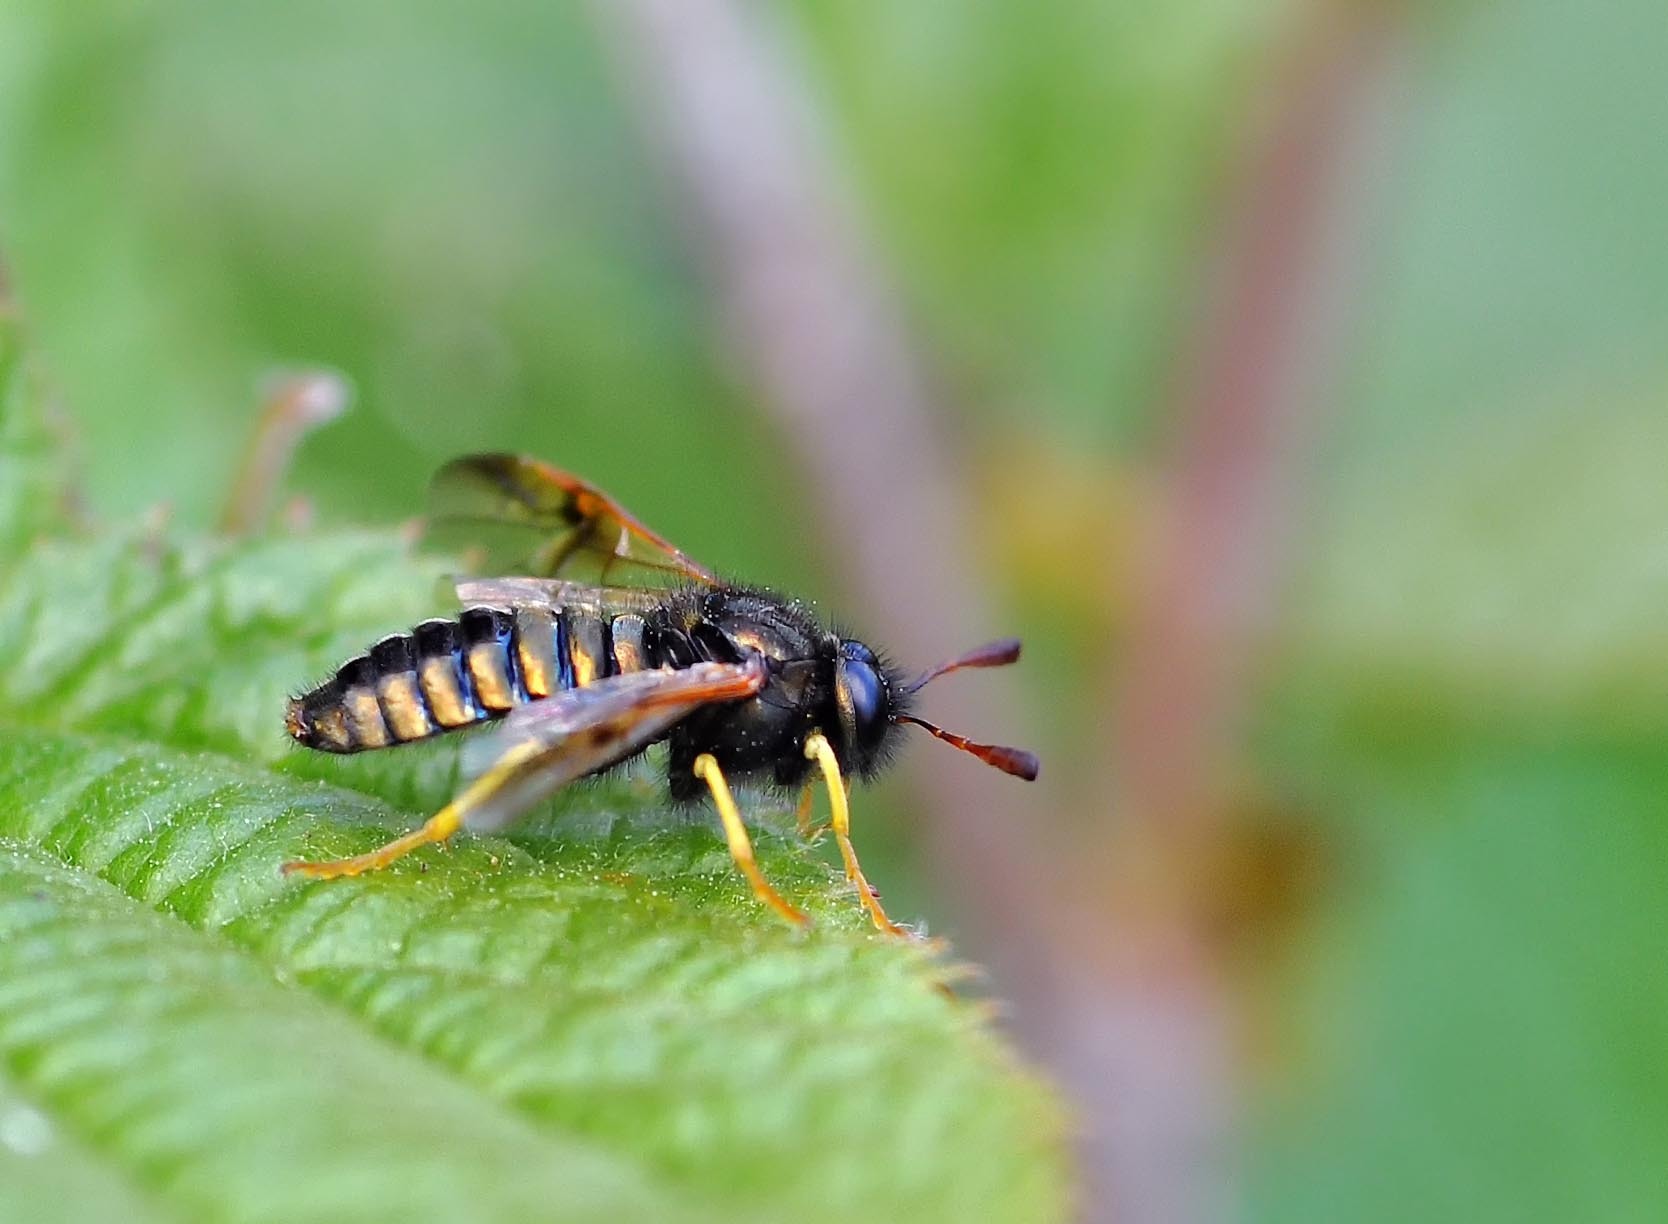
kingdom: Animalia
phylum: Arthropoda
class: Insecta
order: Hymenoptera
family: Cimbicidae
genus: Abia
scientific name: Abia candens
